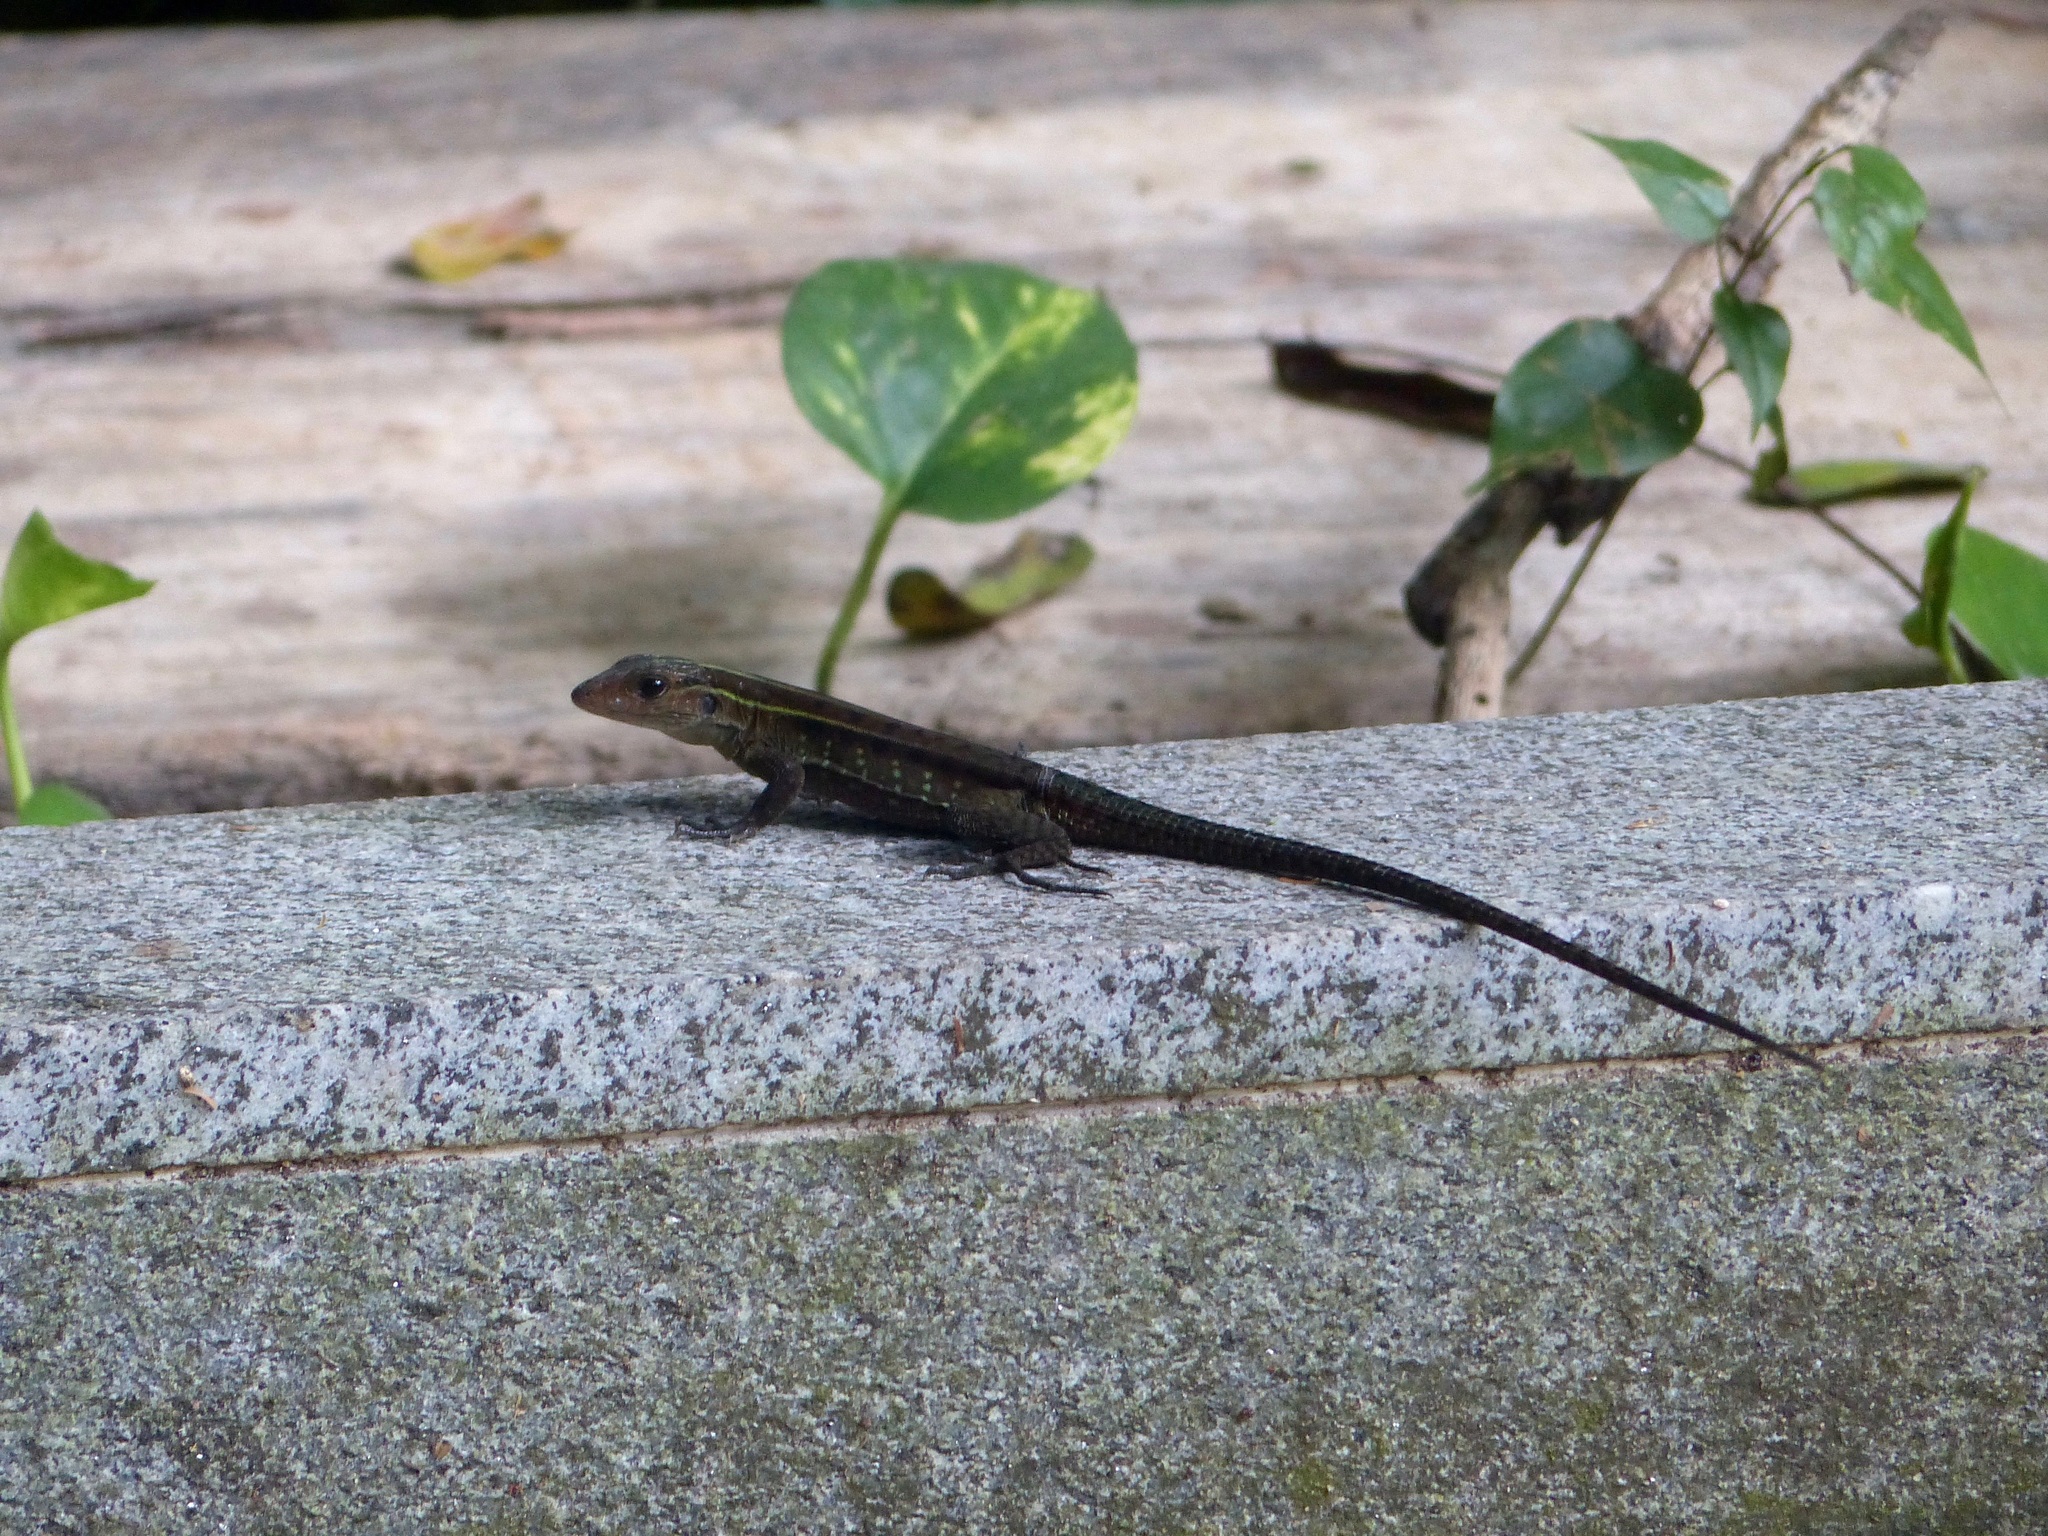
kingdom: Animalia
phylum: Chordata
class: Squamata
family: Teiidae
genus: Kentropyx
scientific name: Kentropyx calcarata
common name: Striped forest whiptail
